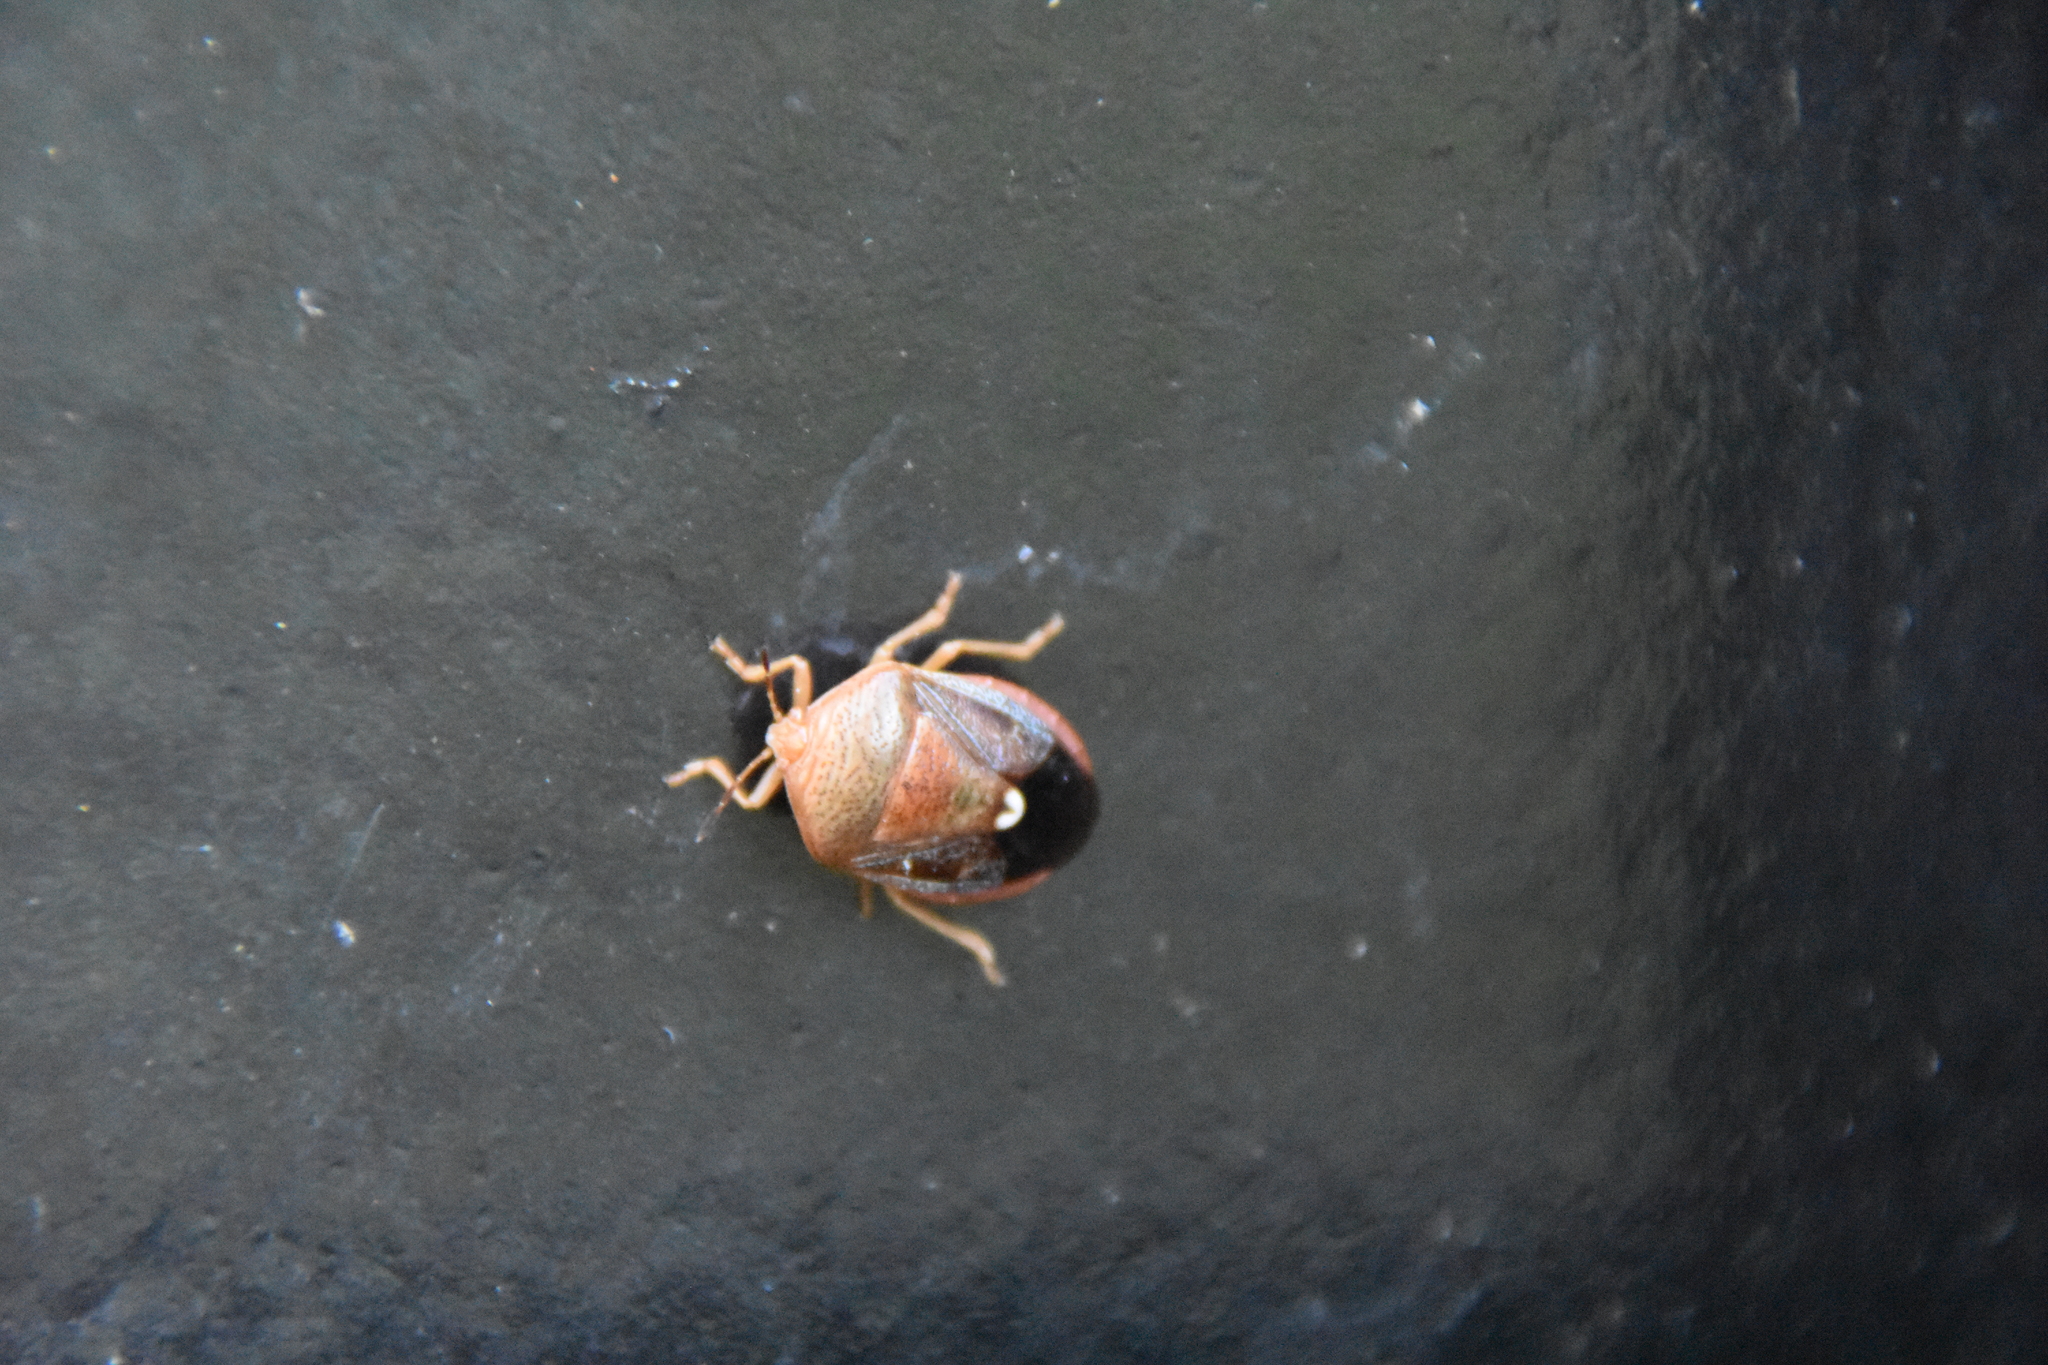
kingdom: Animalia
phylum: Arthropoda
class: Insecta
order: Hemiptera
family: Pentatomidae
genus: Edessa
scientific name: Edessa bifida
